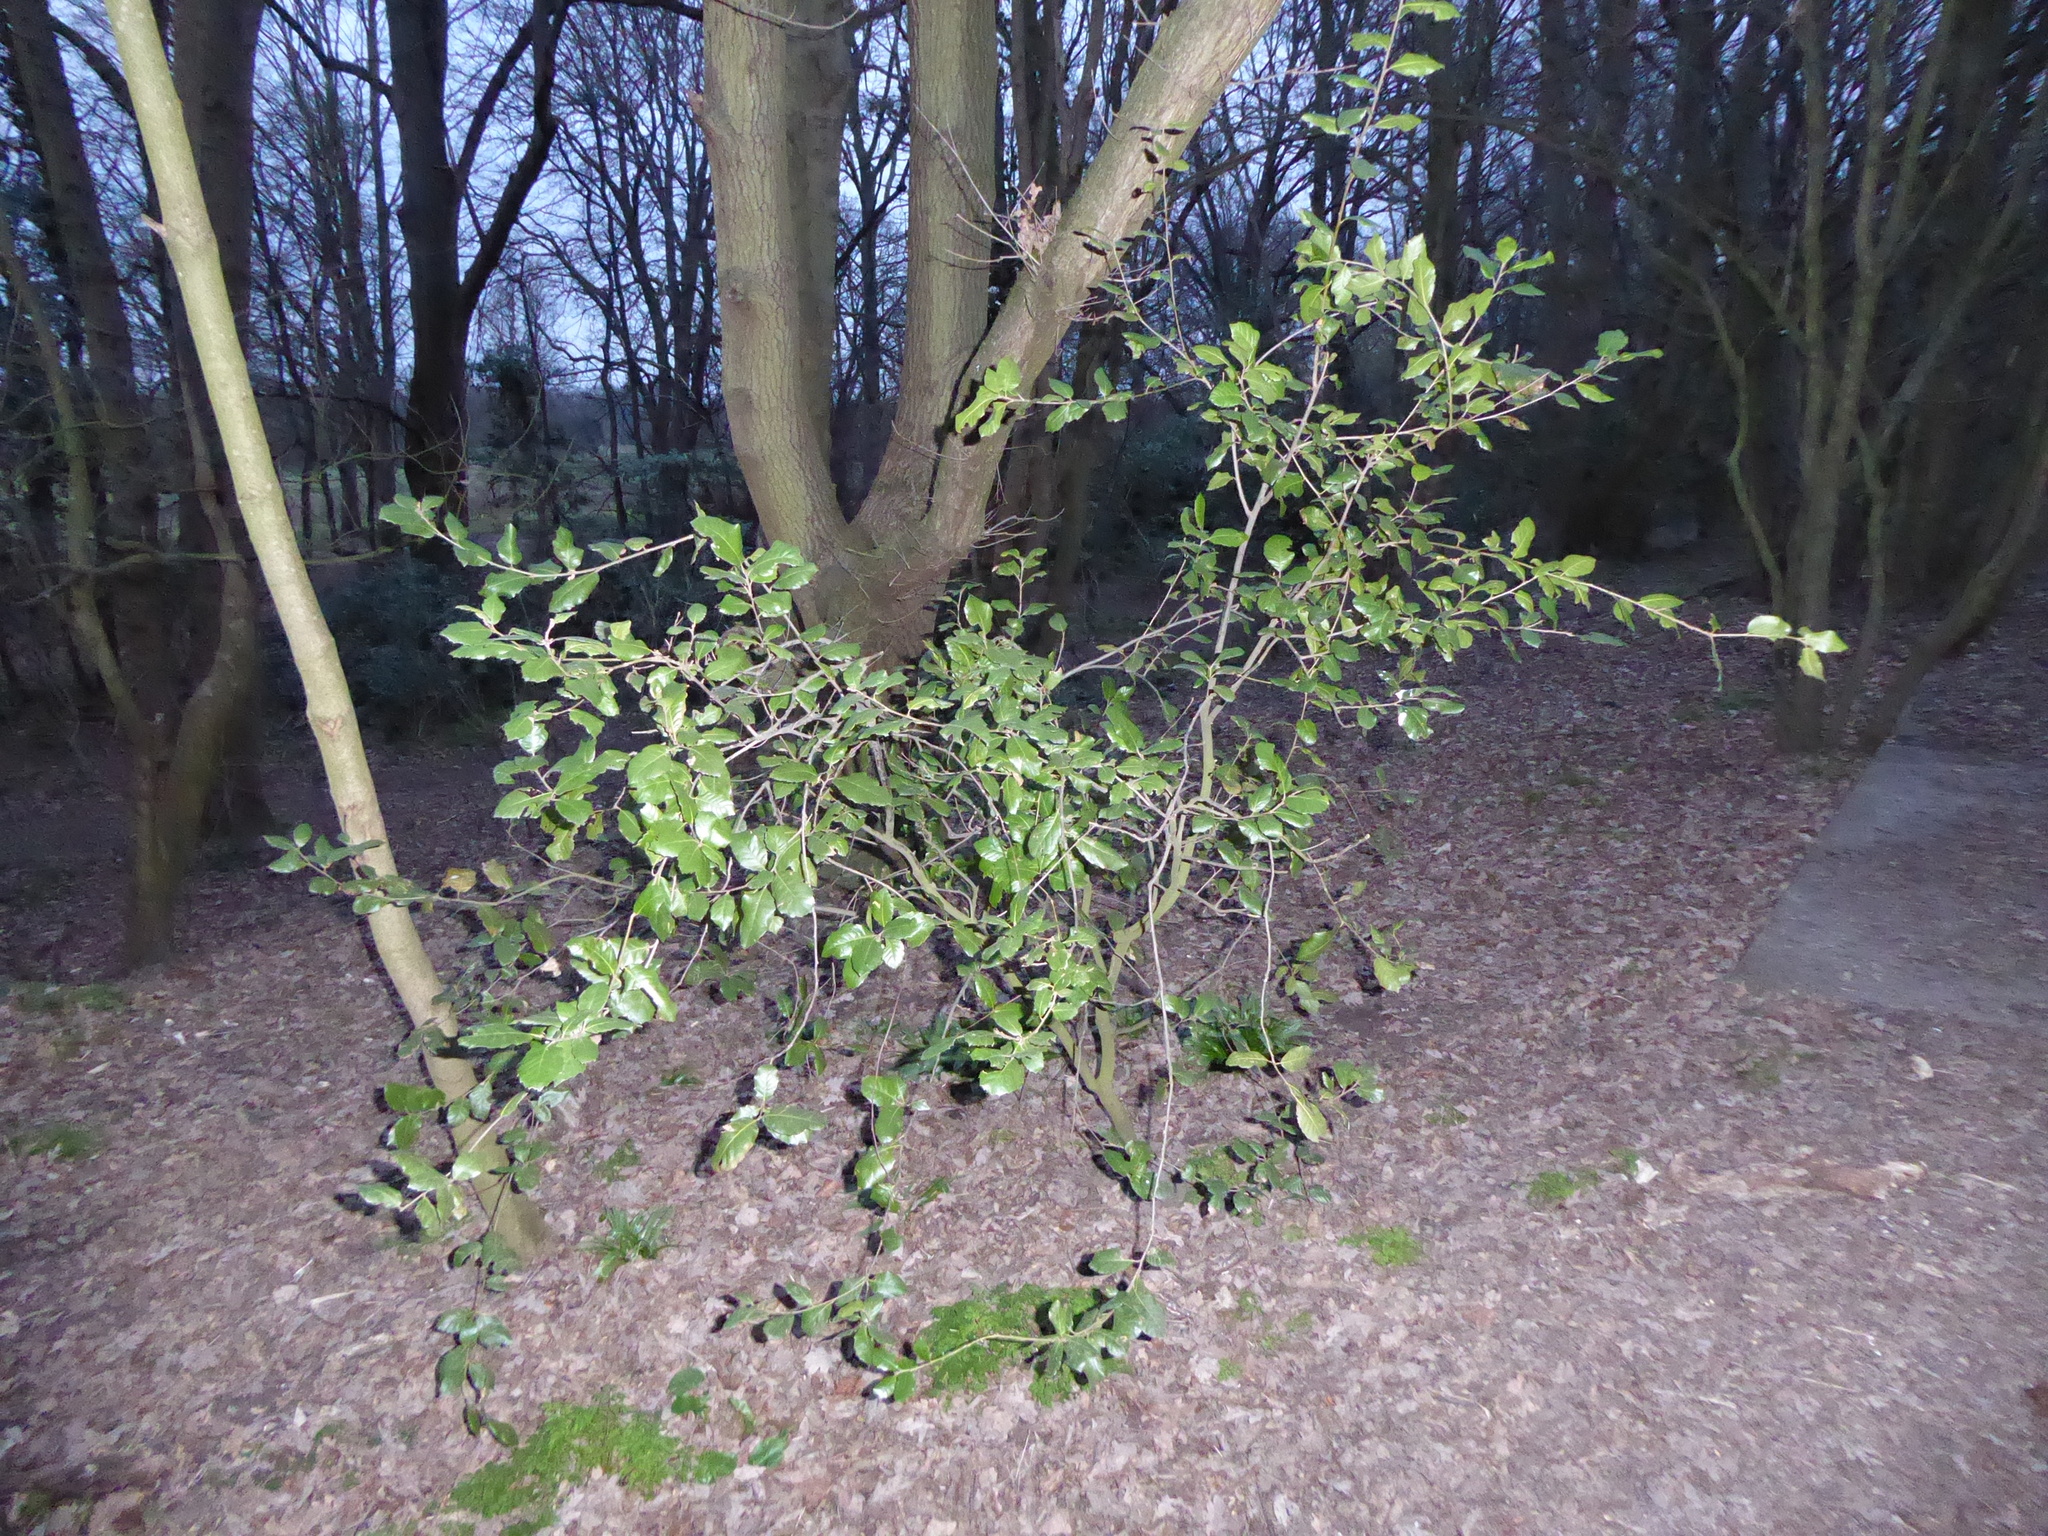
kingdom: Plantae
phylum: Tracheophyta
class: Magnoliopsida
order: Fagales
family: Fagaceae
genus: Quercus
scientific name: Quercus ilex
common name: Evergreen oak
